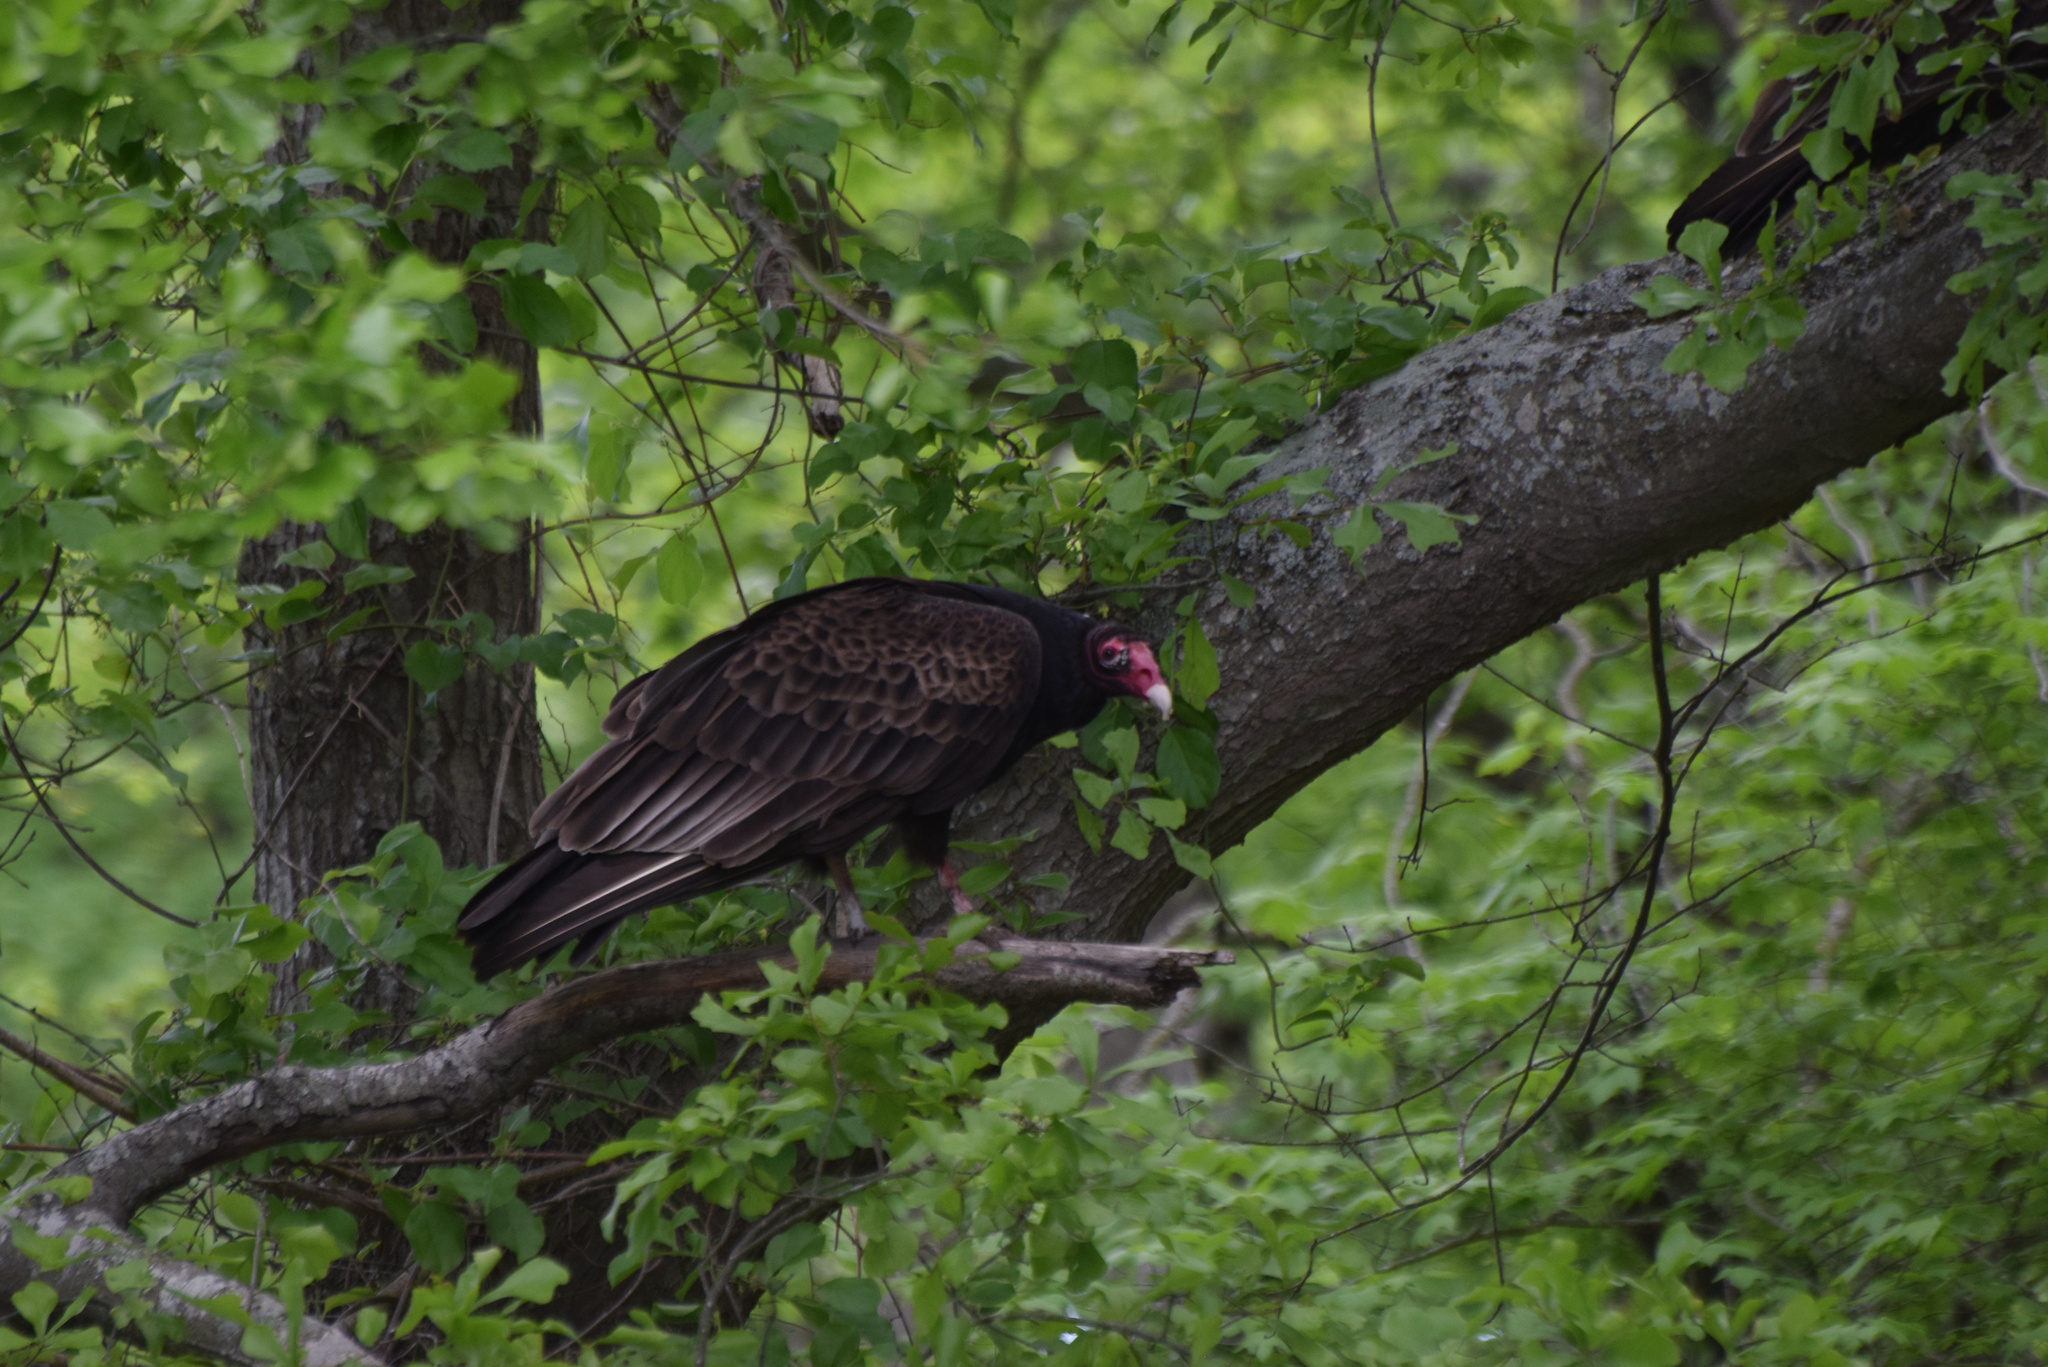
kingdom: Animalia
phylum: Chordata
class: Aves
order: Accipitriformes
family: Cathartidae
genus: Cathartes
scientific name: Cathartes aura
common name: Turkey vulture
